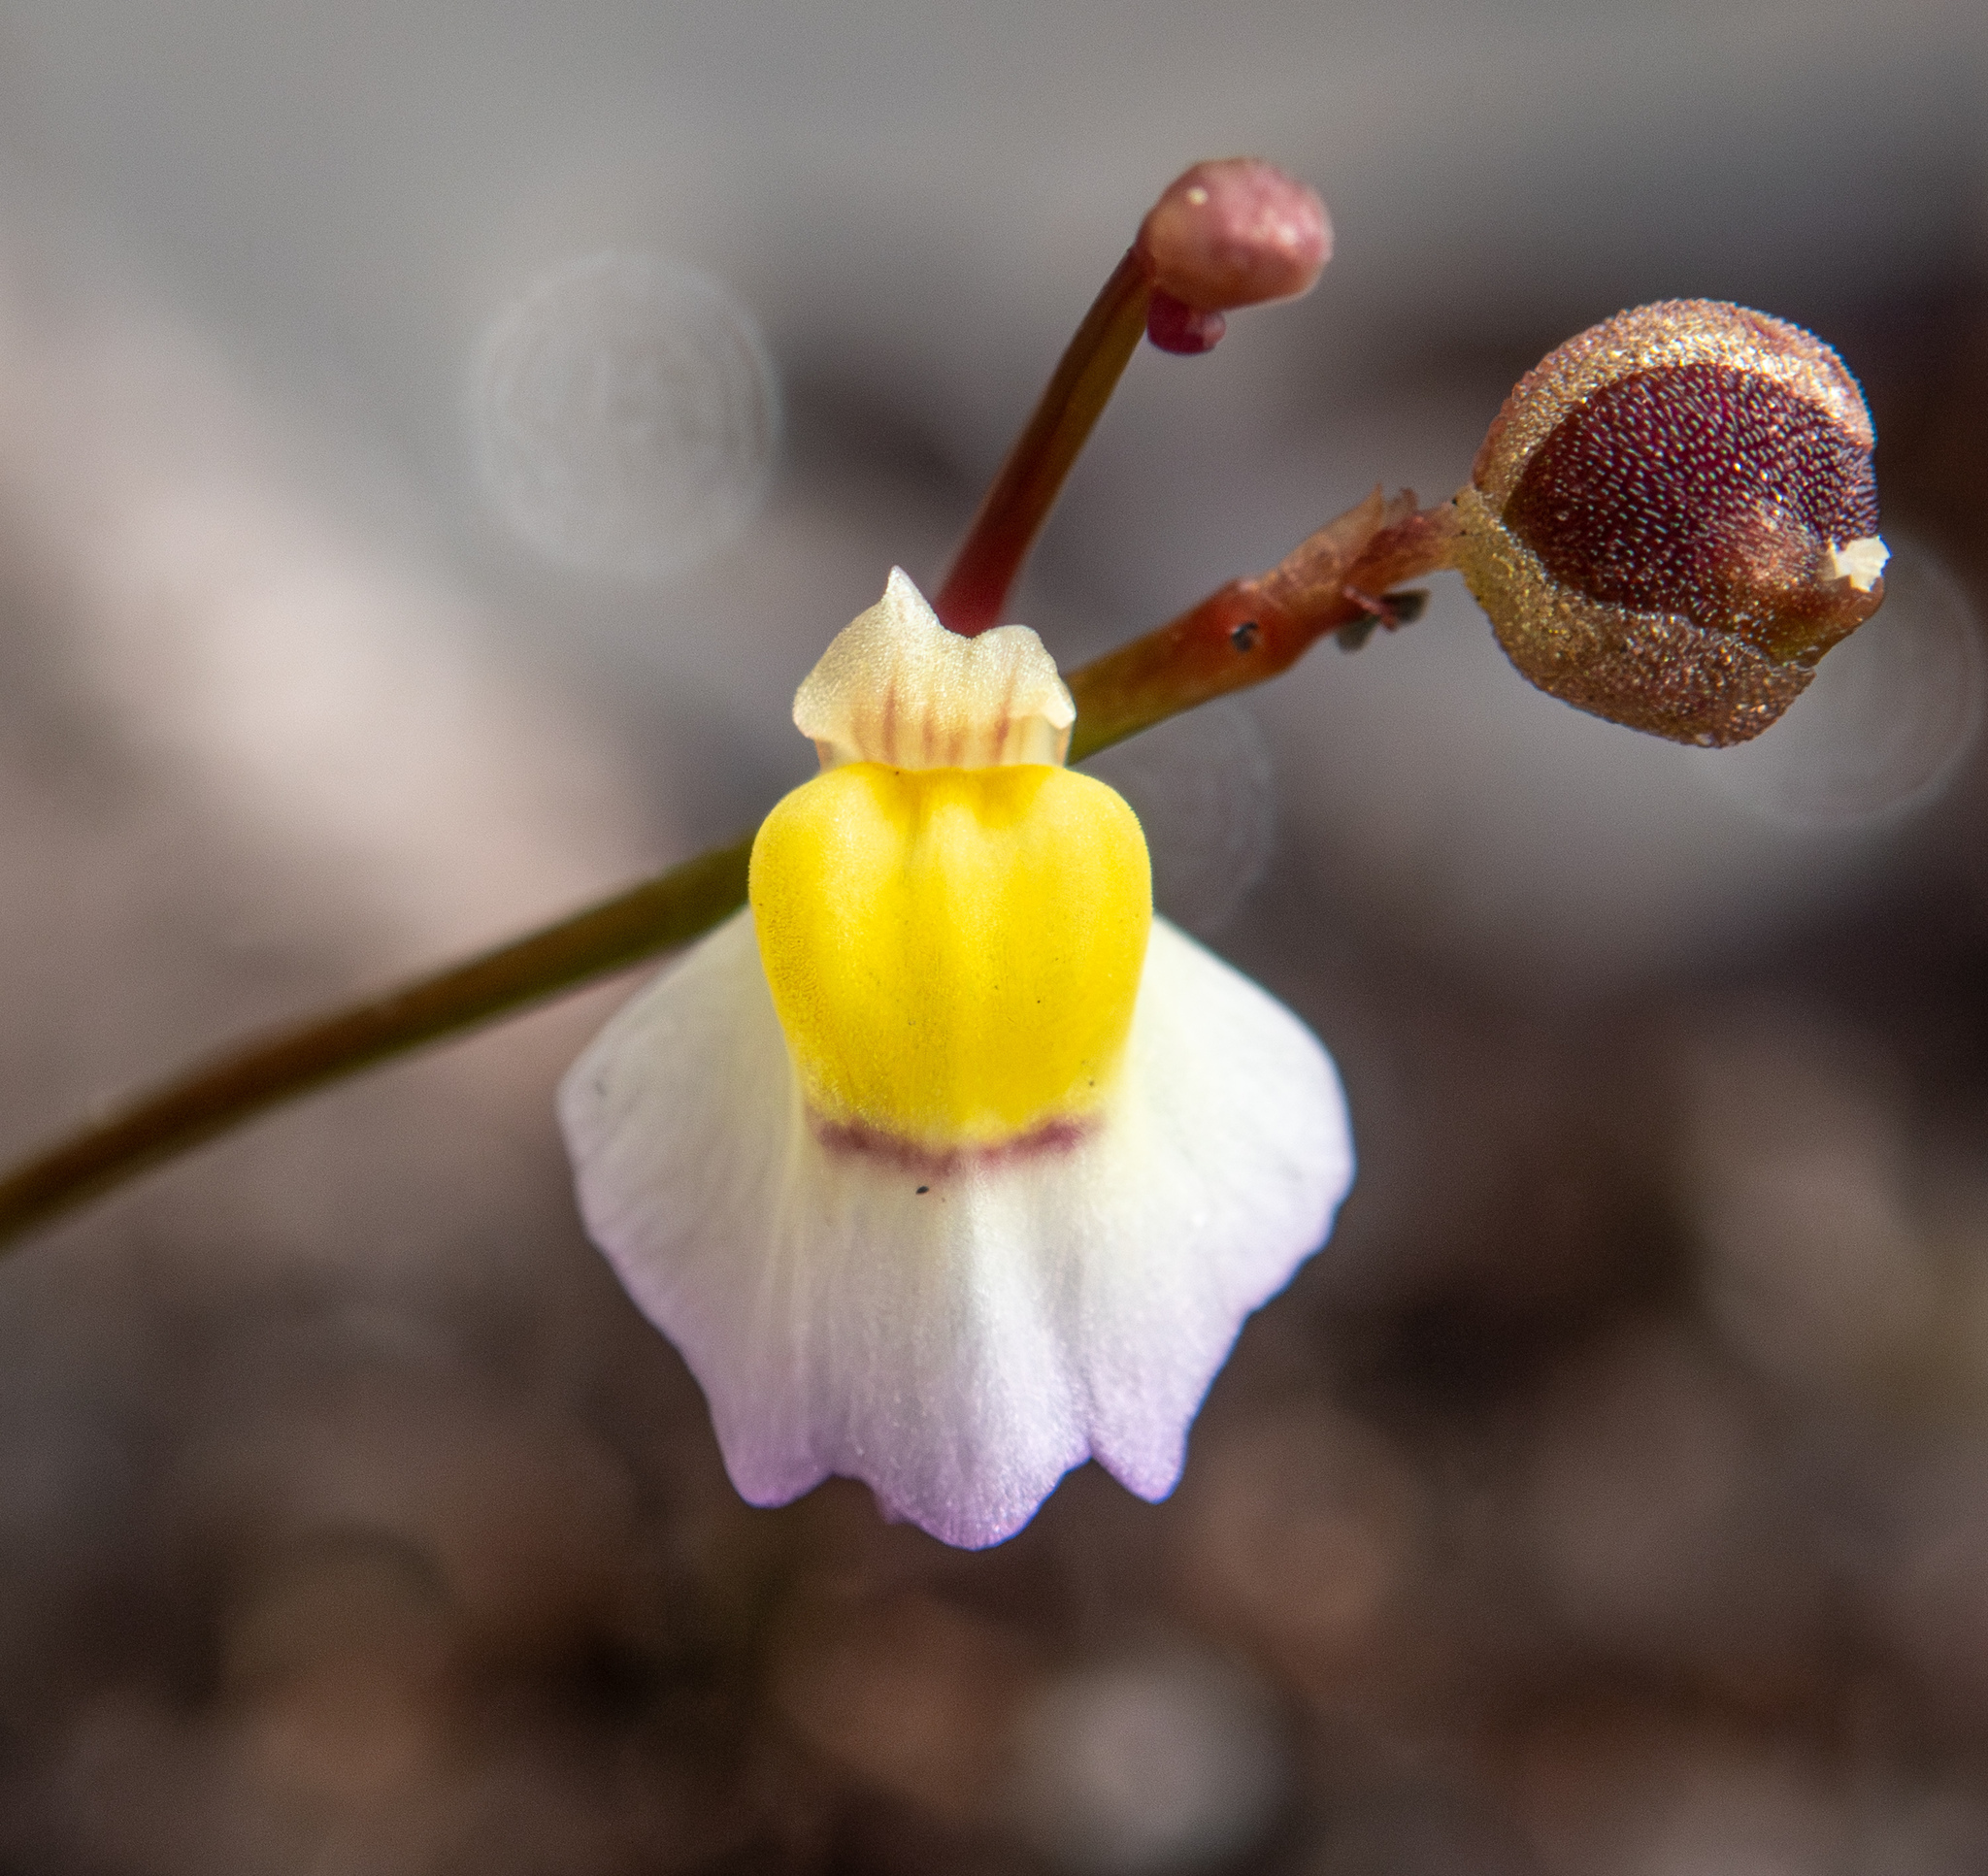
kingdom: Plantae
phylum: Tracheophyta
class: Magnoliopsida
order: Lamiales
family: Lentibulariaceae
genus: Utricularia
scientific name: Utricularia bisquamata
